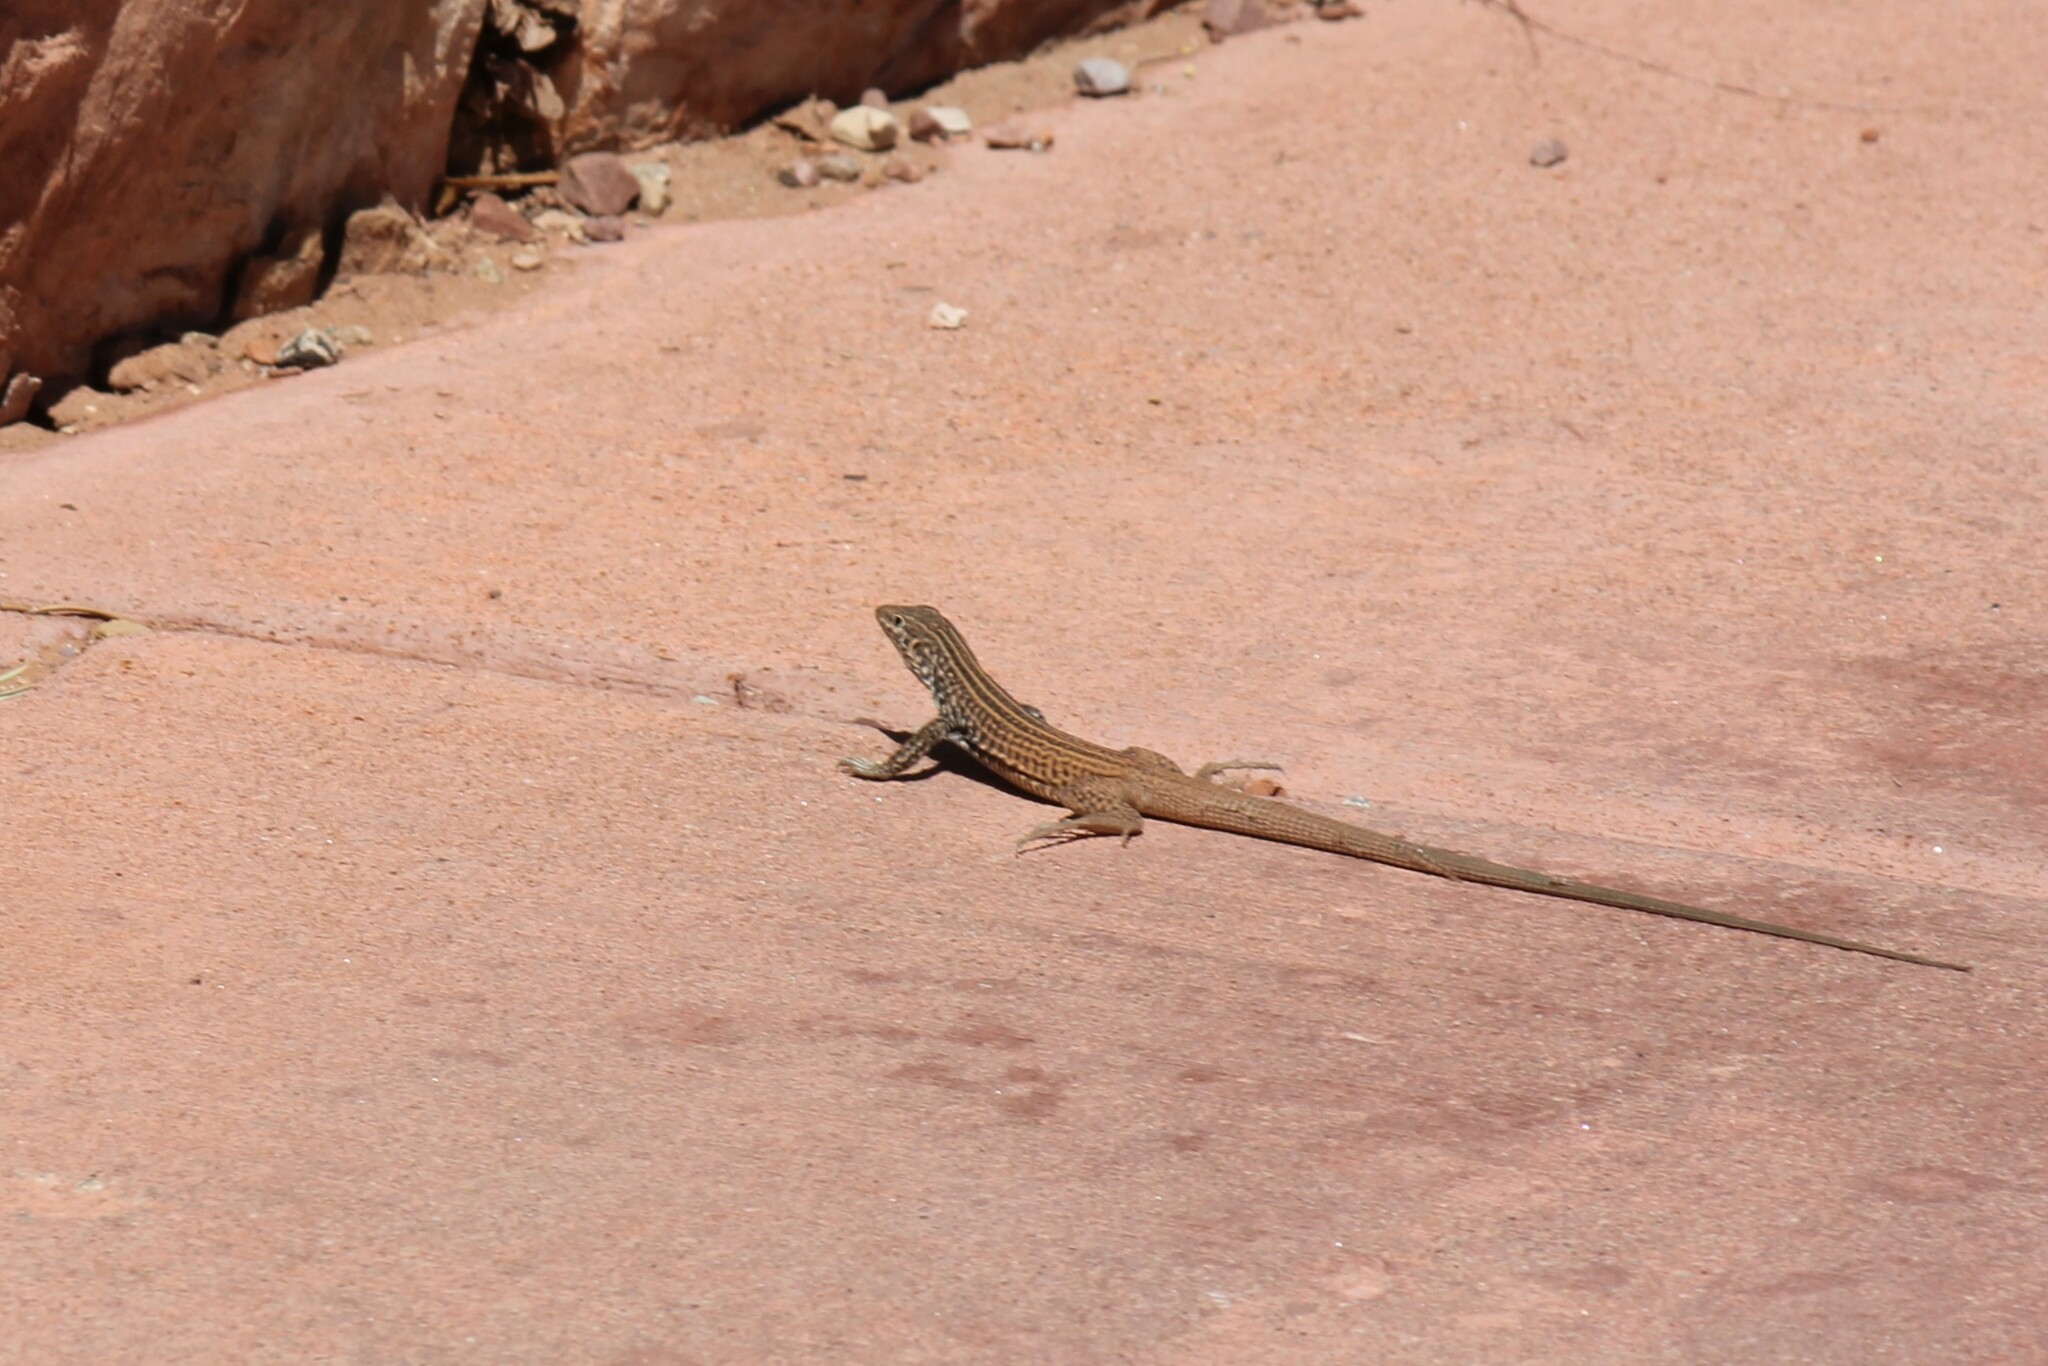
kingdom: Animalia
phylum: Chordata
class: Squamata
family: Teiidae
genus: Aspidoscelis
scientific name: Aspidoscelis tigris
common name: Tiger whiptail
